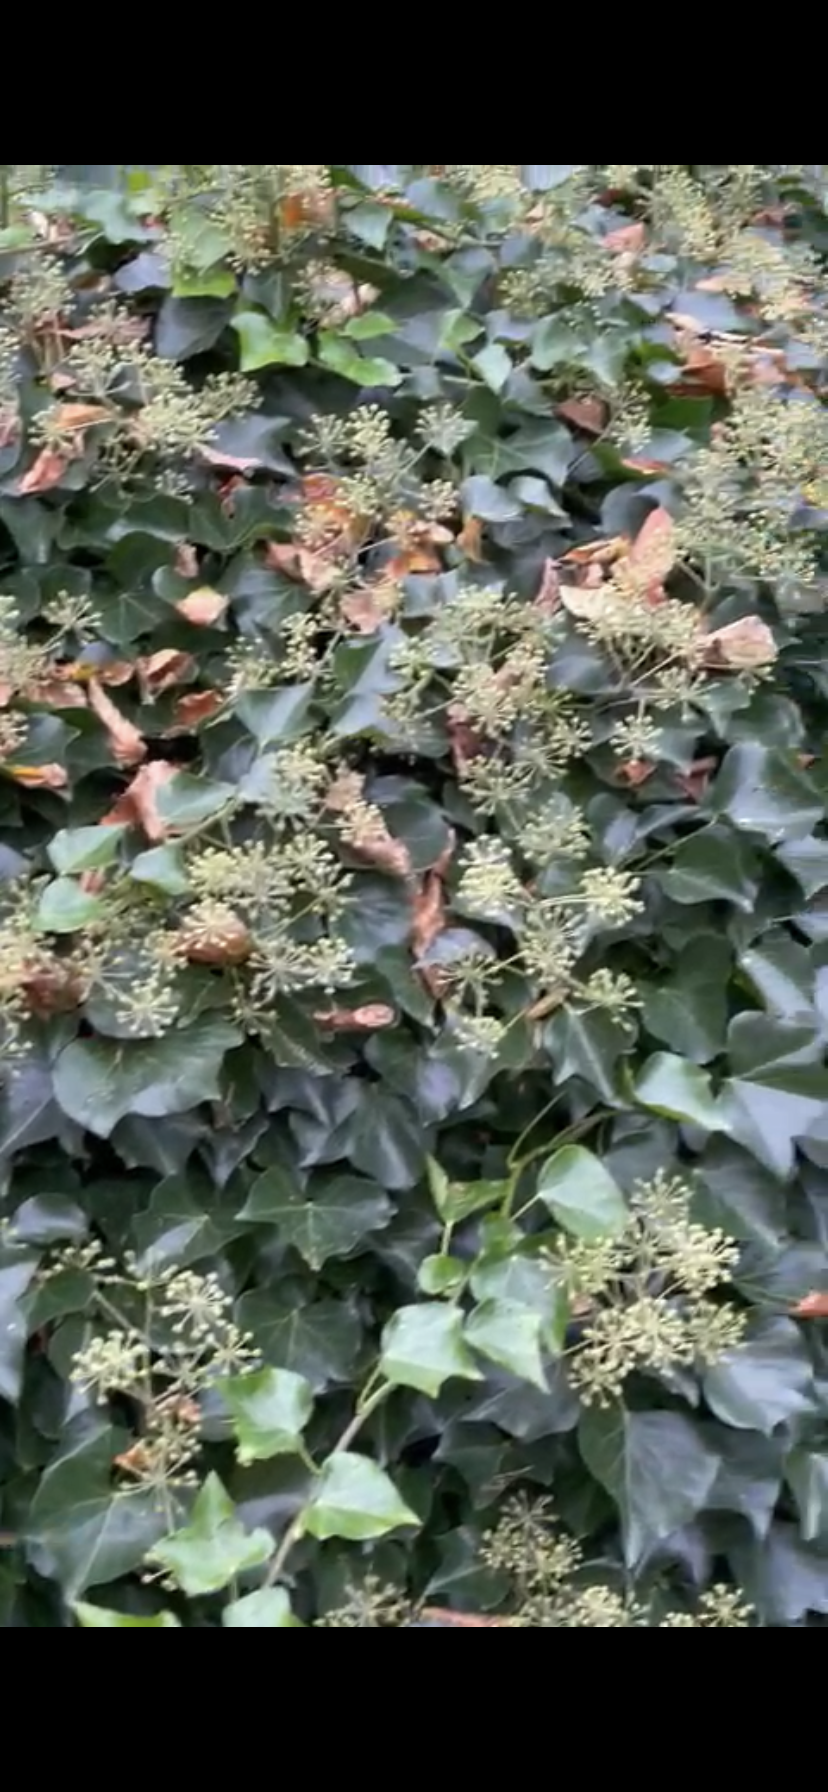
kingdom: Plantae
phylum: Tracheophyta
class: Magnoliopsida
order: Apiales
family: Araliaceae
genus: Hedera
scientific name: Hedera helix
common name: Ivy
